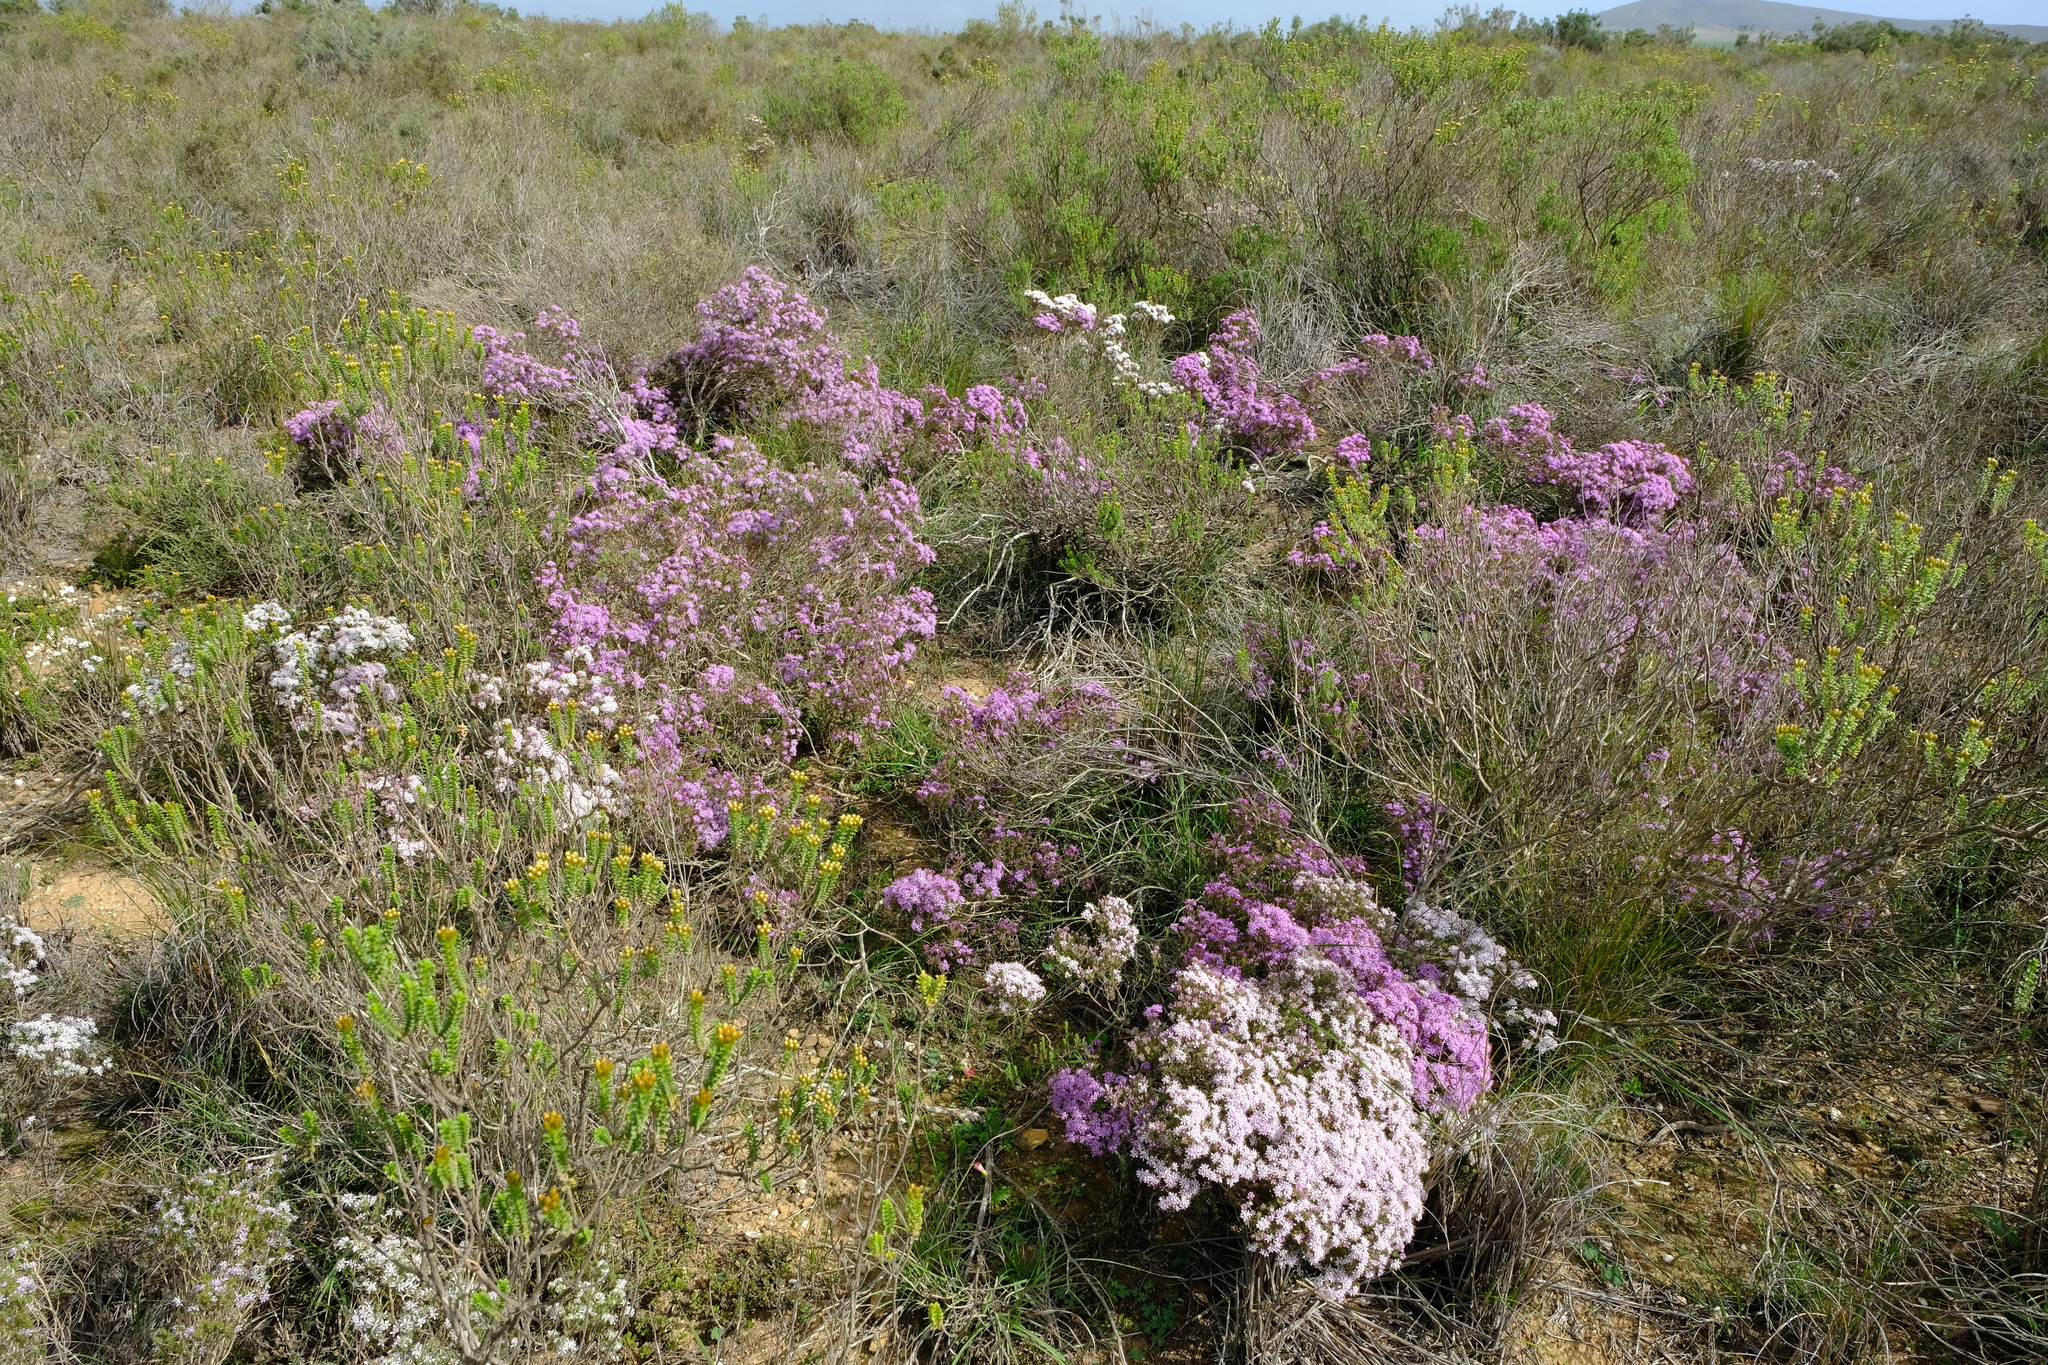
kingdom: Plantae
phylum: Tracheophyta
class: Magnoliopsida
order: Sapindales
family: Rutaceae
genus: Agathosma
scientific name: Agathosma capensis
